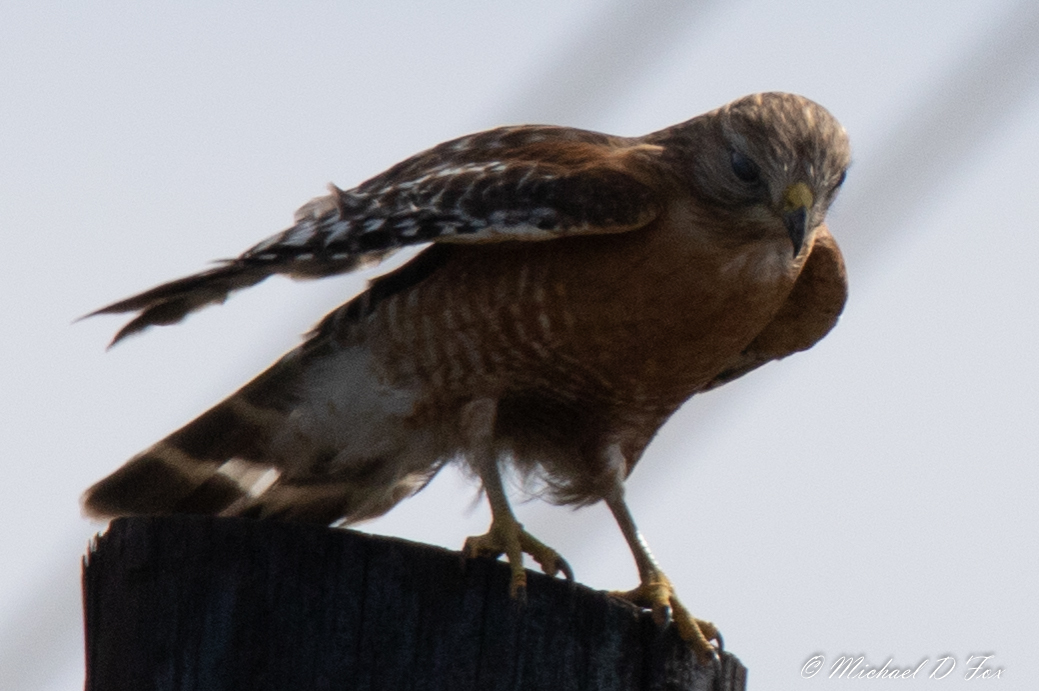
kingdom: Animalia
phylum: Chordata
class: Aves
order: Accipitriformes
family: Accipitridae
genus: Buteo
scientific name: Buteo lineatus
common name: Red-shouldered hawk
